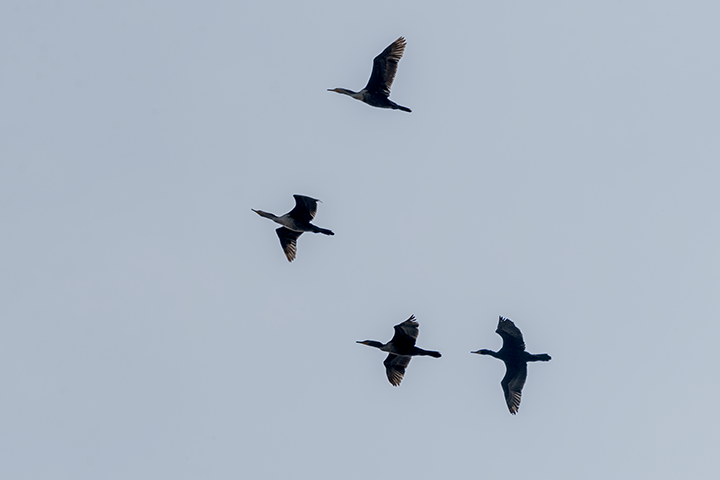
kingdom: Animalia
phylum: Chordata
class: Aves
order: Suliformes
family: Phalacrocoracidae
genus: Phalacrocorax
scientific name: Phalacrocorax auritus
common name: Double-crested cormorant
